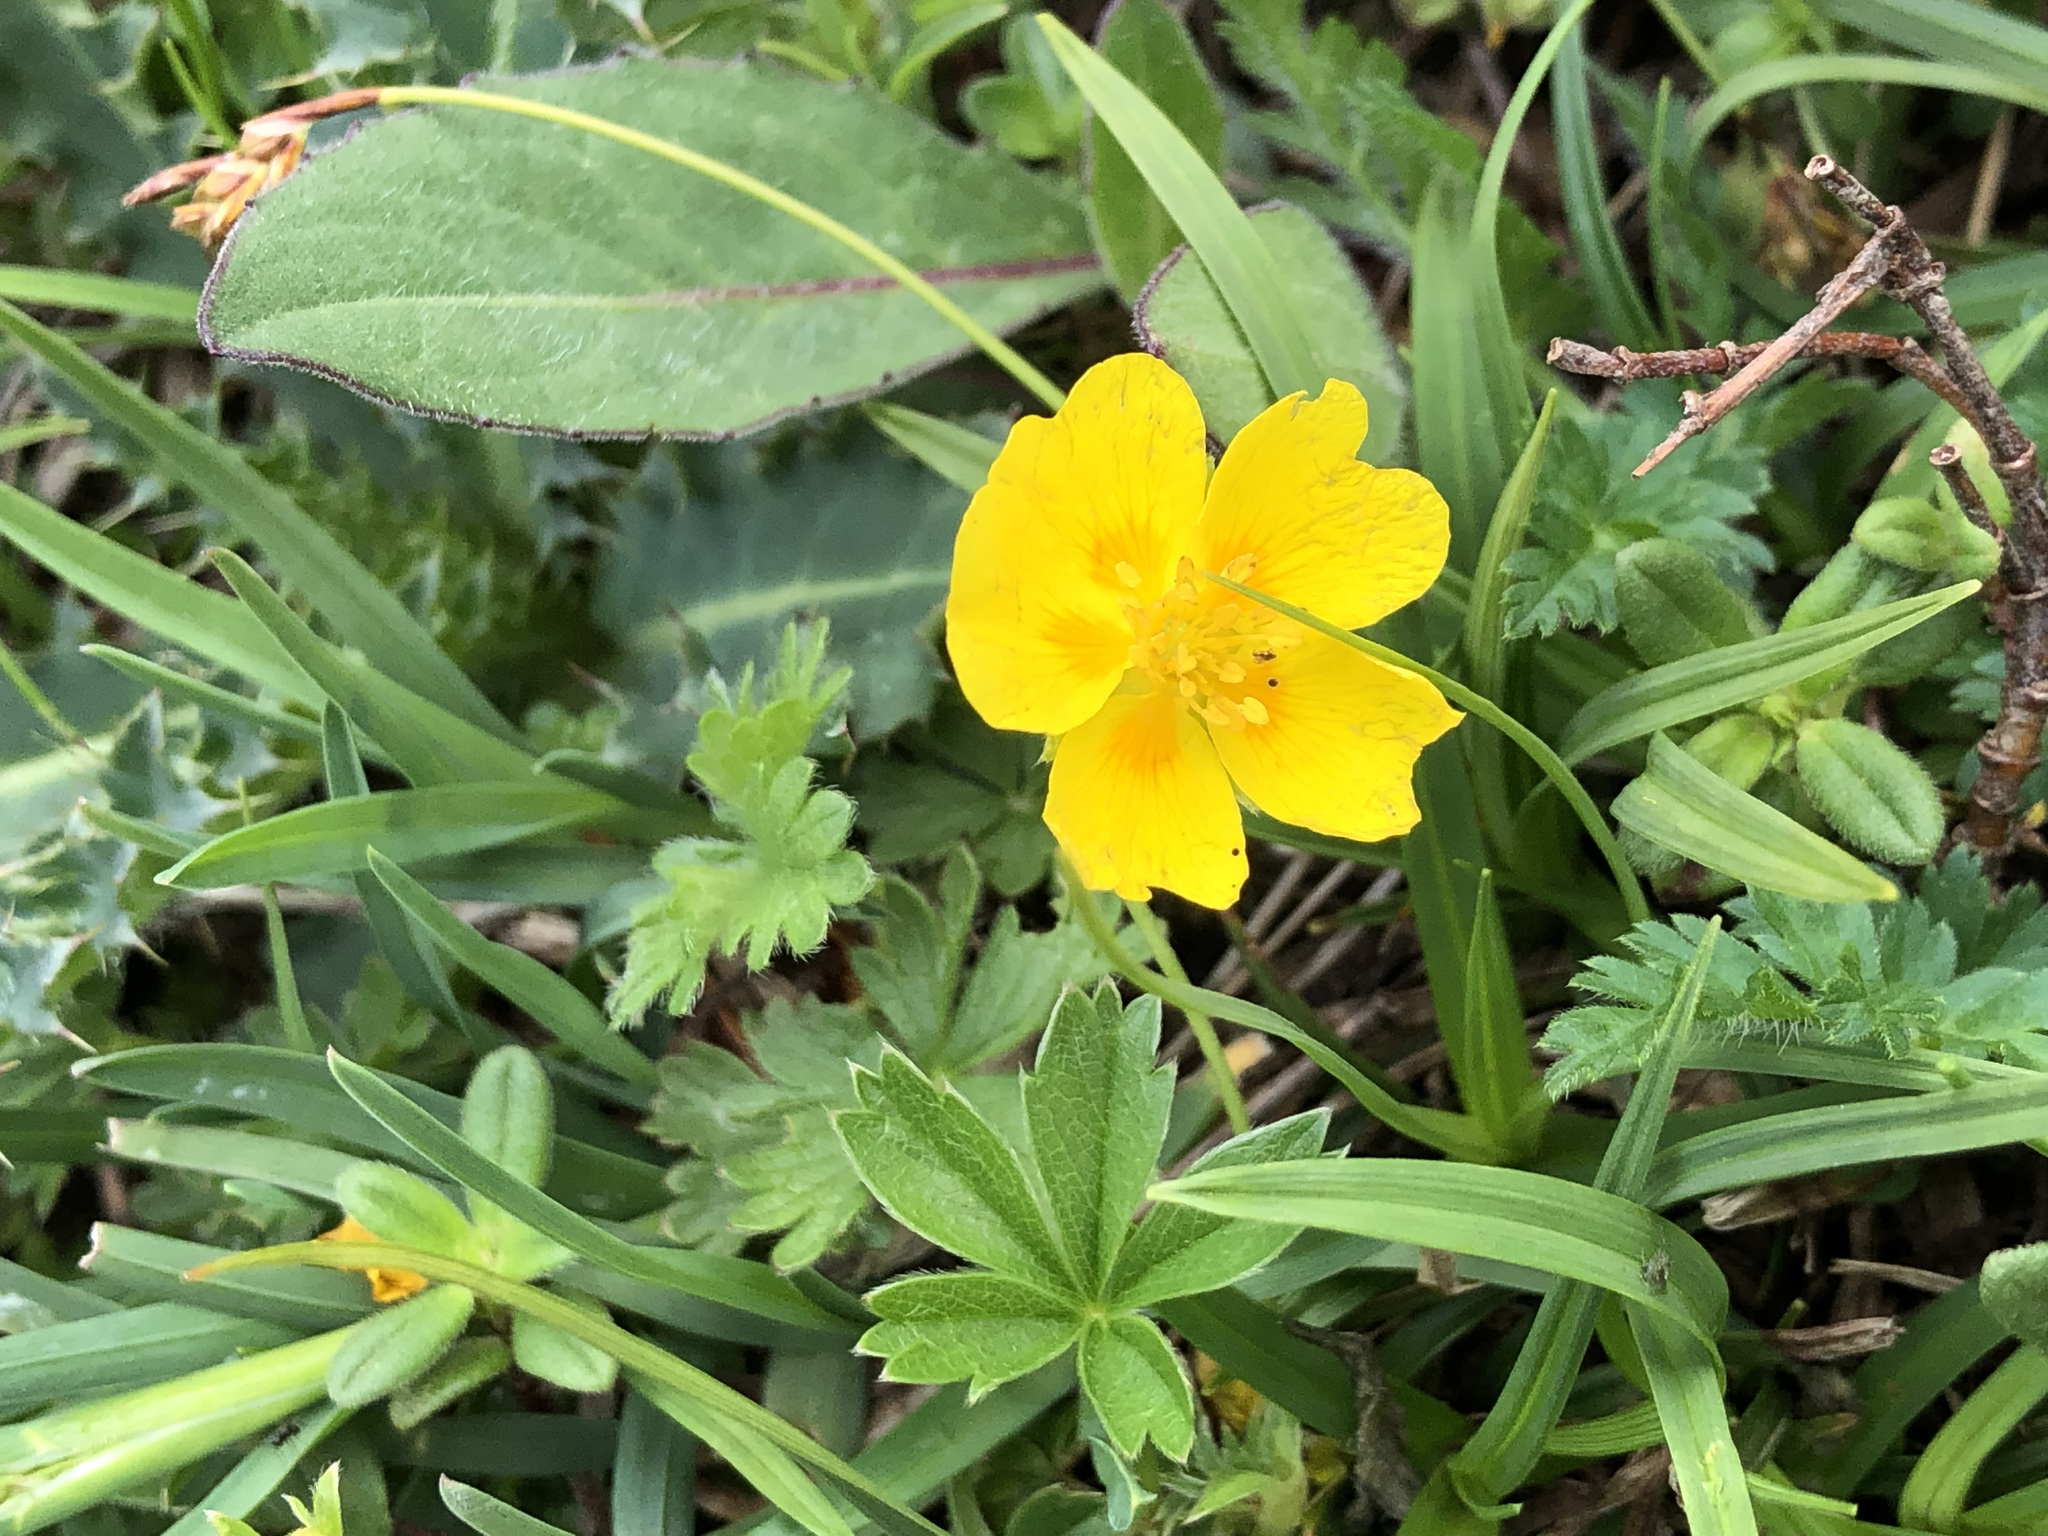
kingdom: Plantae
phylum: Tracheophyta
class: Magnoliopsida
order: Rosales
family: Rosaceae
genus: Potentilla
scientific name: Potentilla aurea
